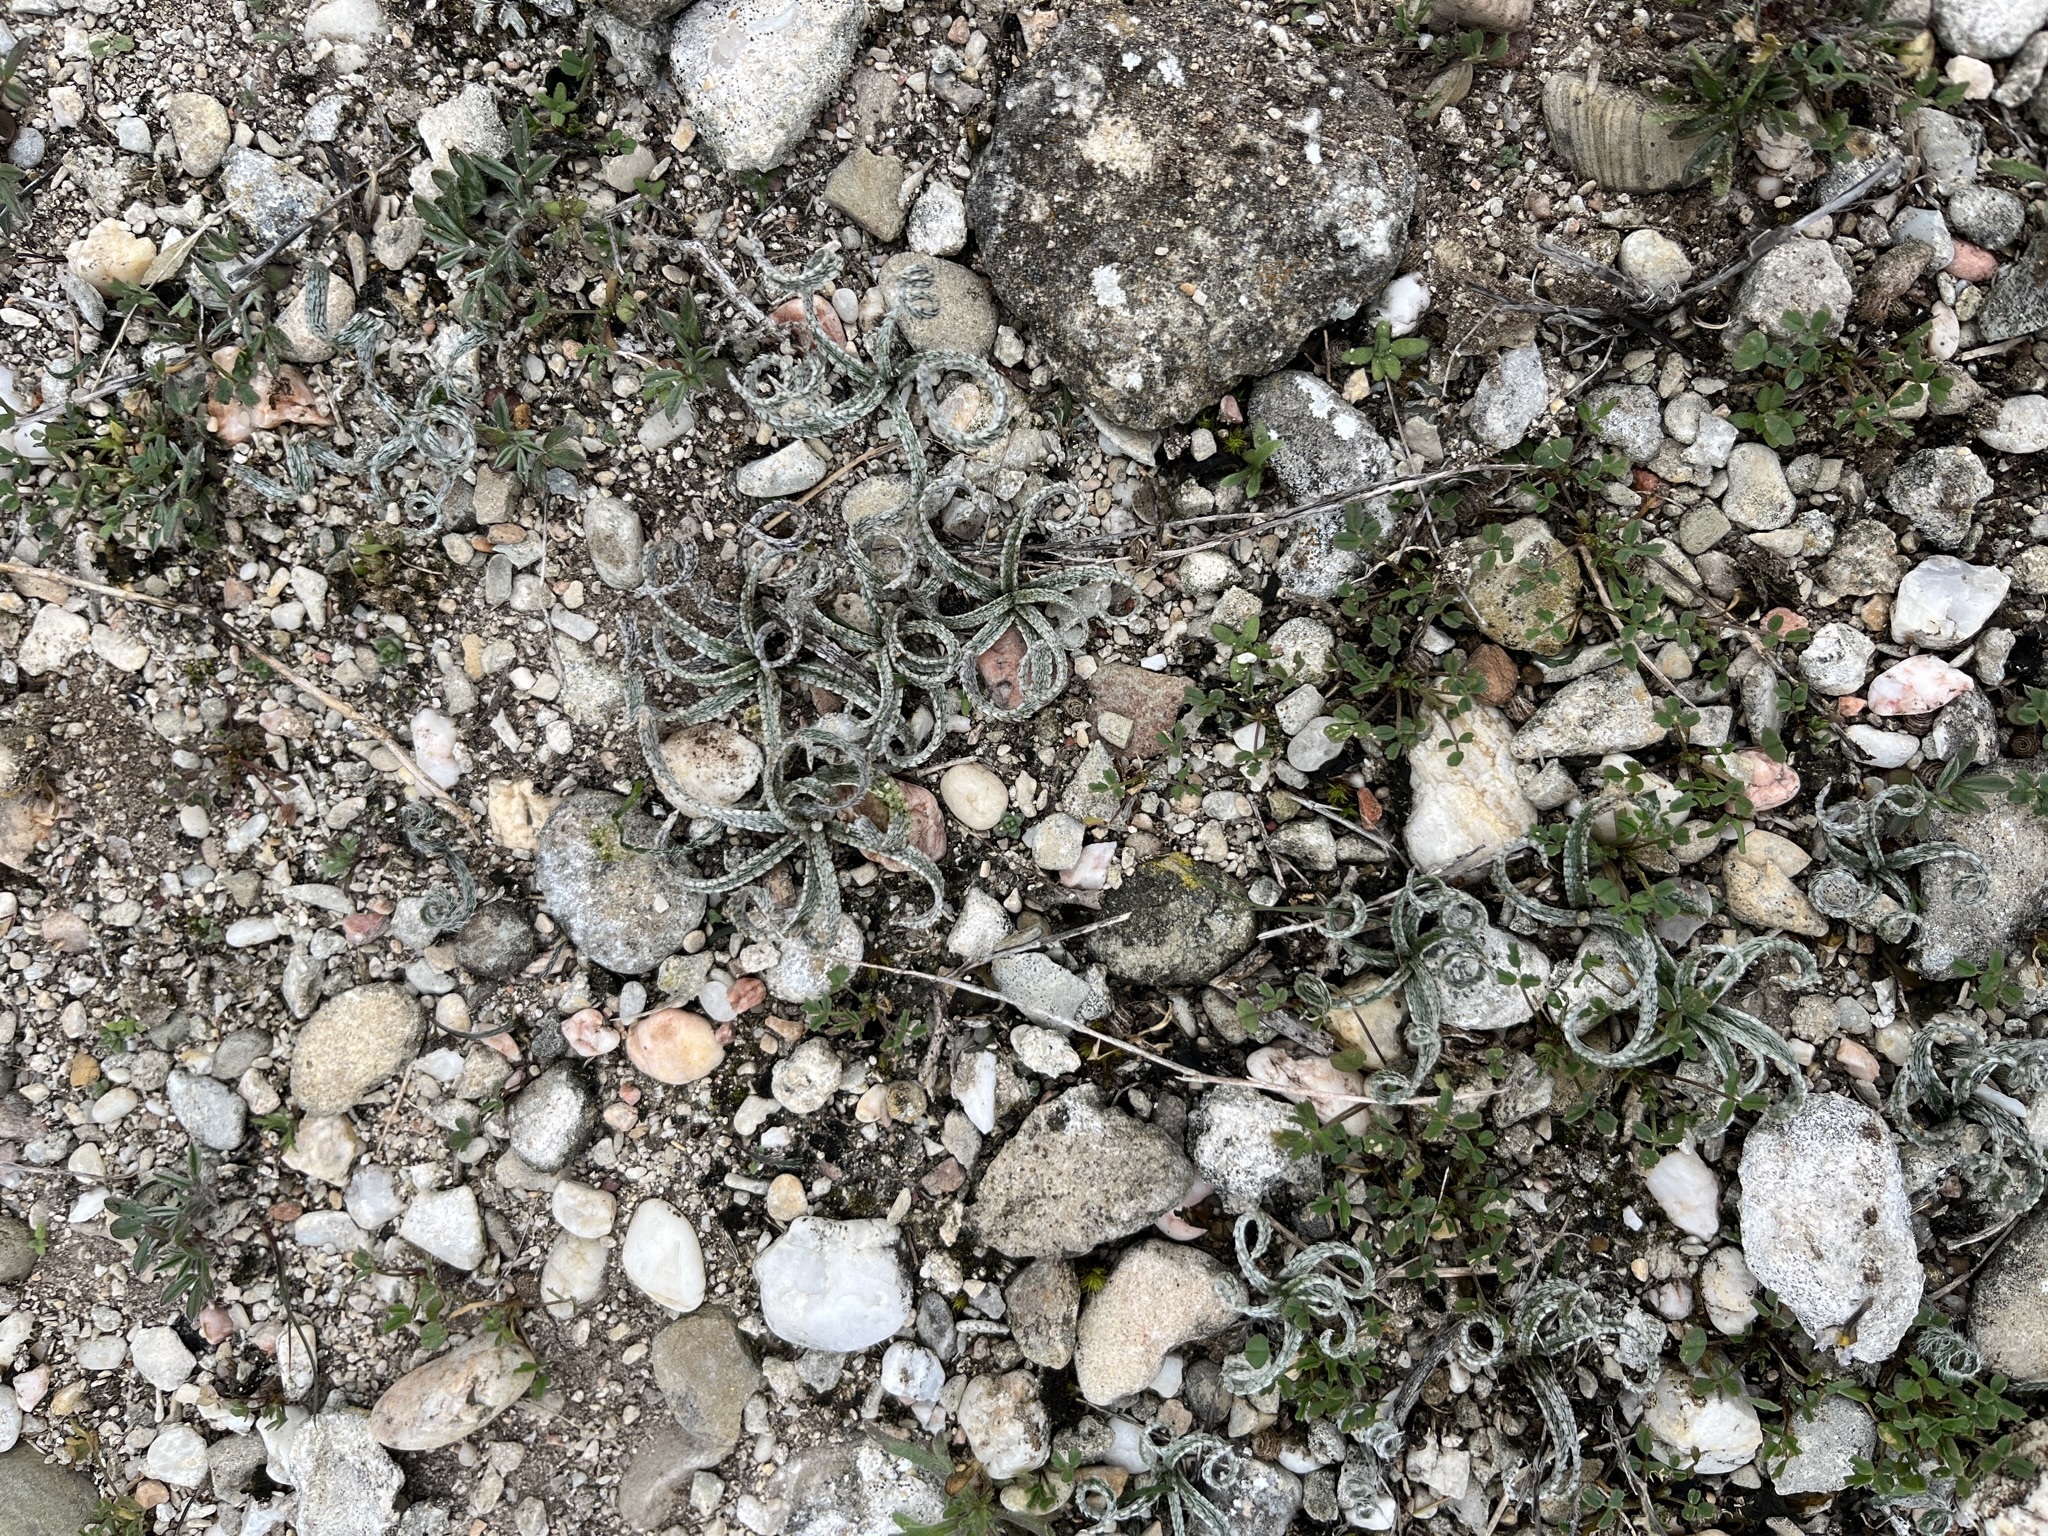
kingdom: Plantae
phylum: Tracheophyta
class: Liliopsida
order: Asparagales
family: Amaryllidaceae
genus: Gethyllis
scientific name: Gethyllis villosa
